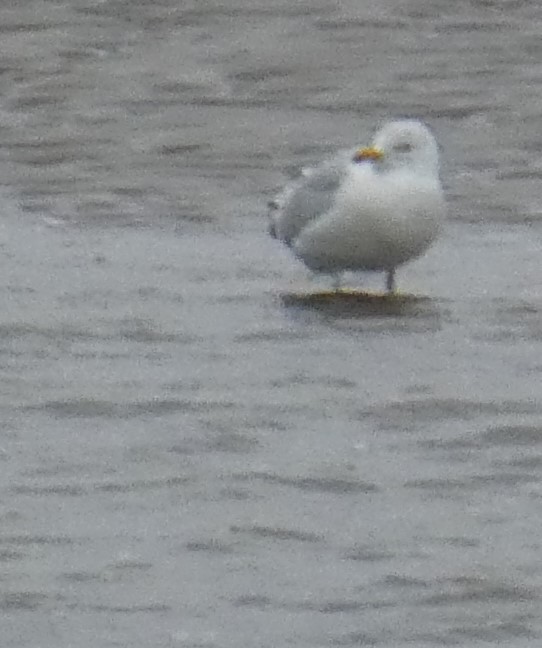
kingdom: Animalia
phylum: Chordata
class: Aves
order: Charadriiformes
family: Laridae
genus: Larus
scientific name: Larus argentatus
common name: Herring gull
